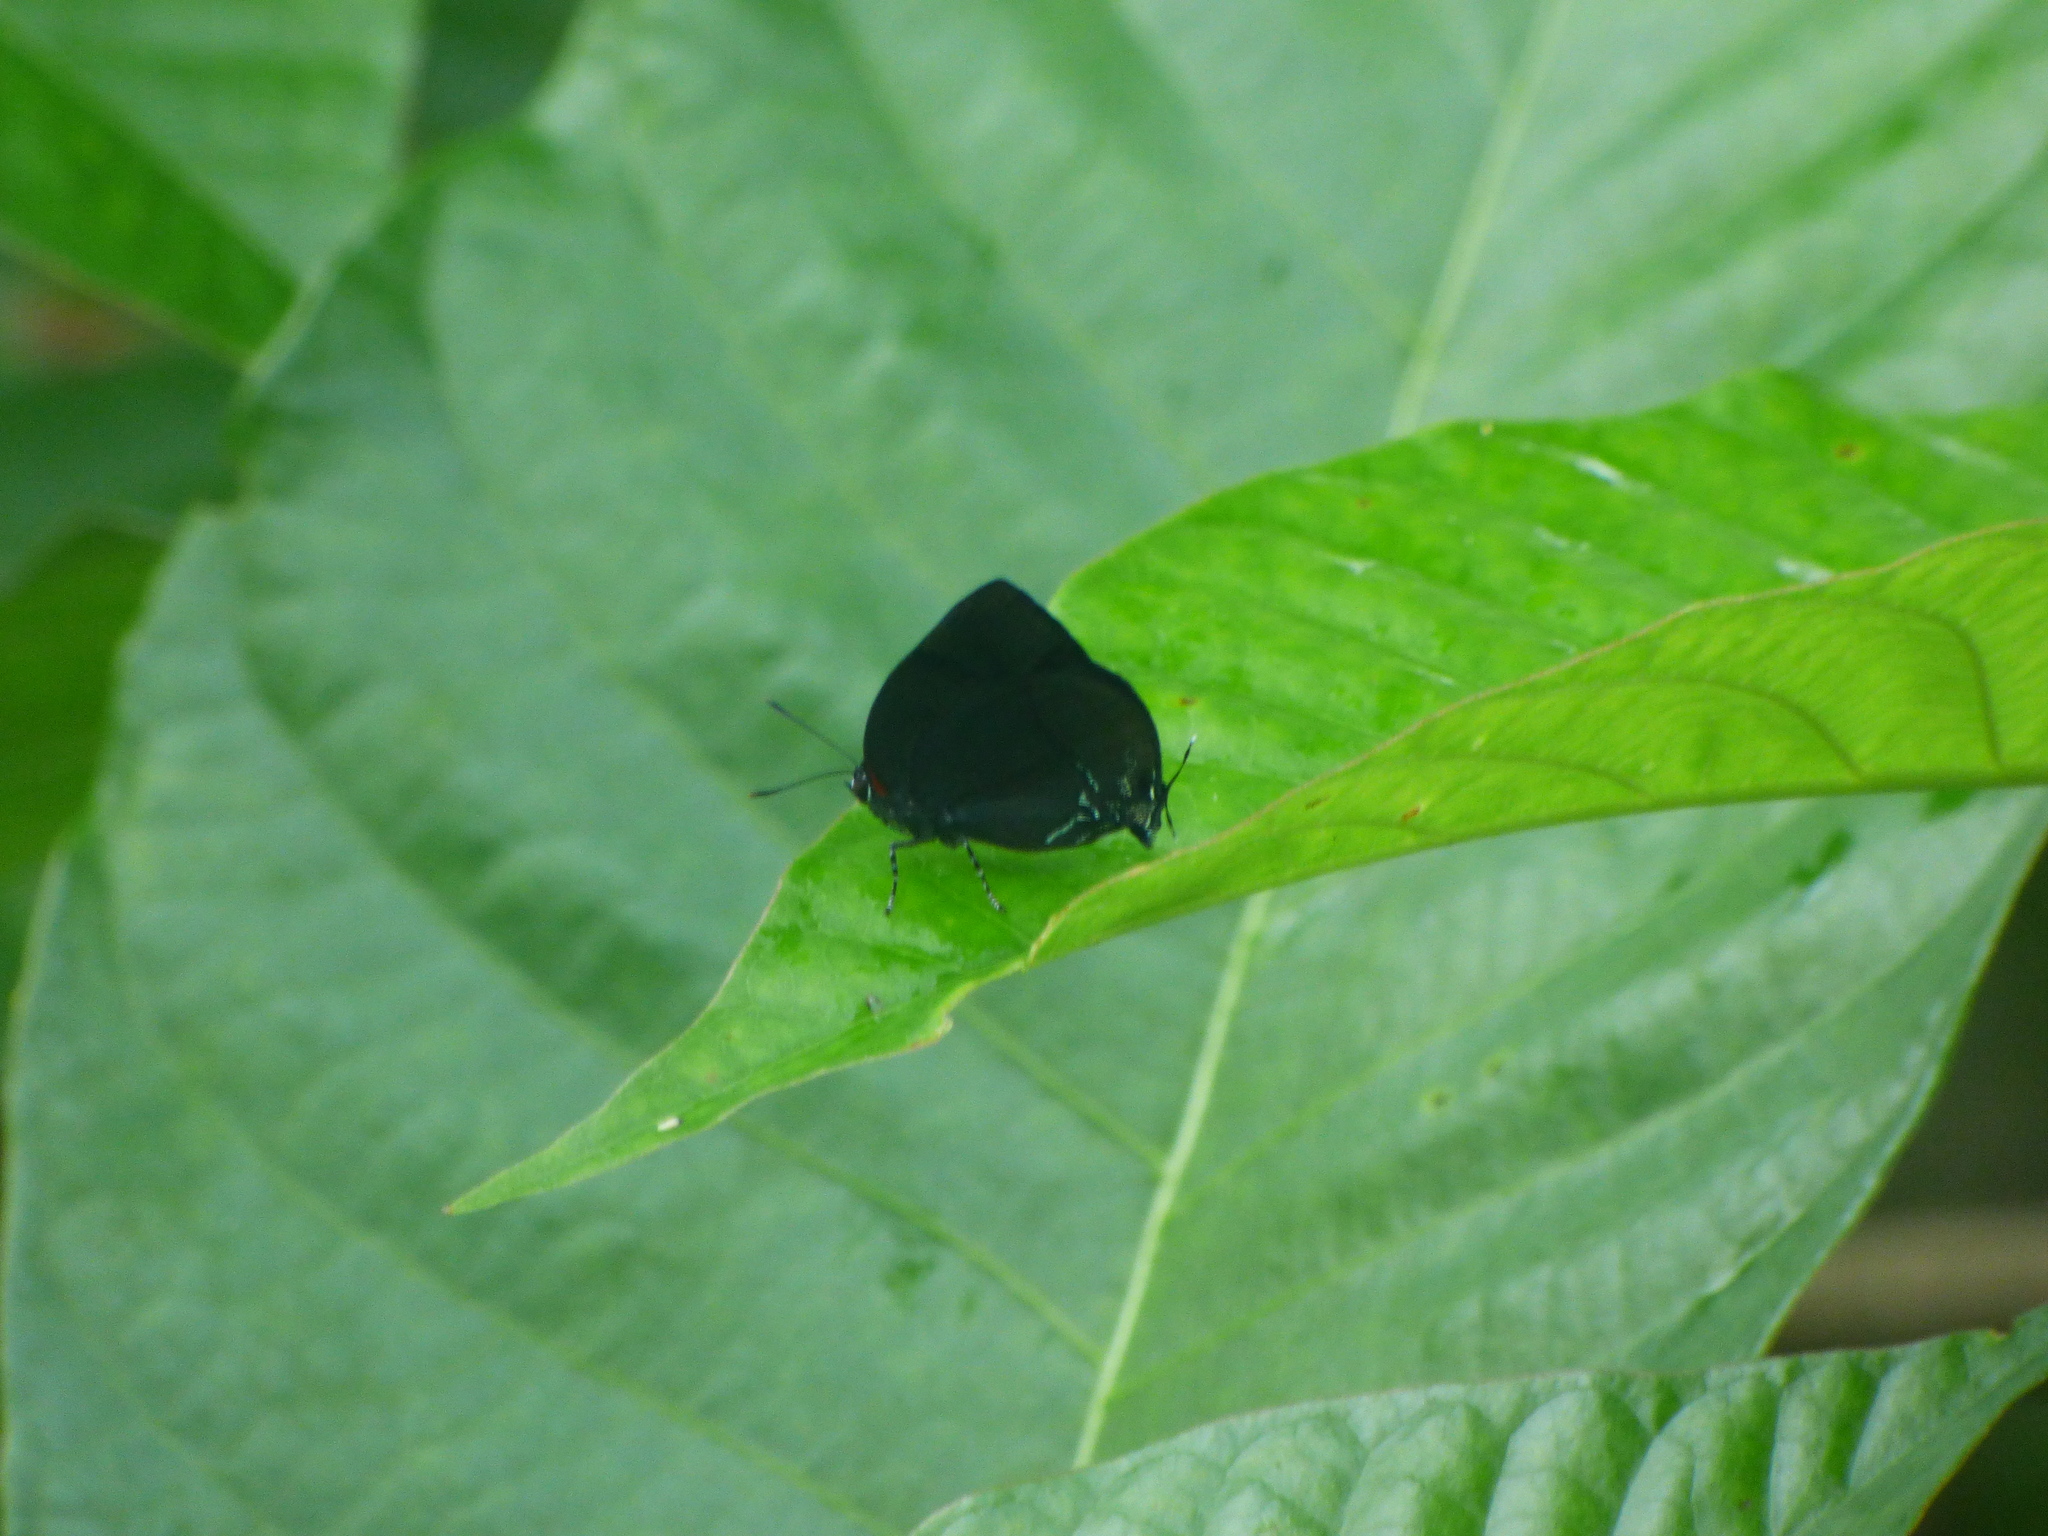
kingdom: Animalia
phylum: Arthropoda
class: Insecta
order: Lepidoptera
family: Lycaenidae
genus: Panthiades
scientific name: Panthiades bitias
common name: Bitias hairstreak
